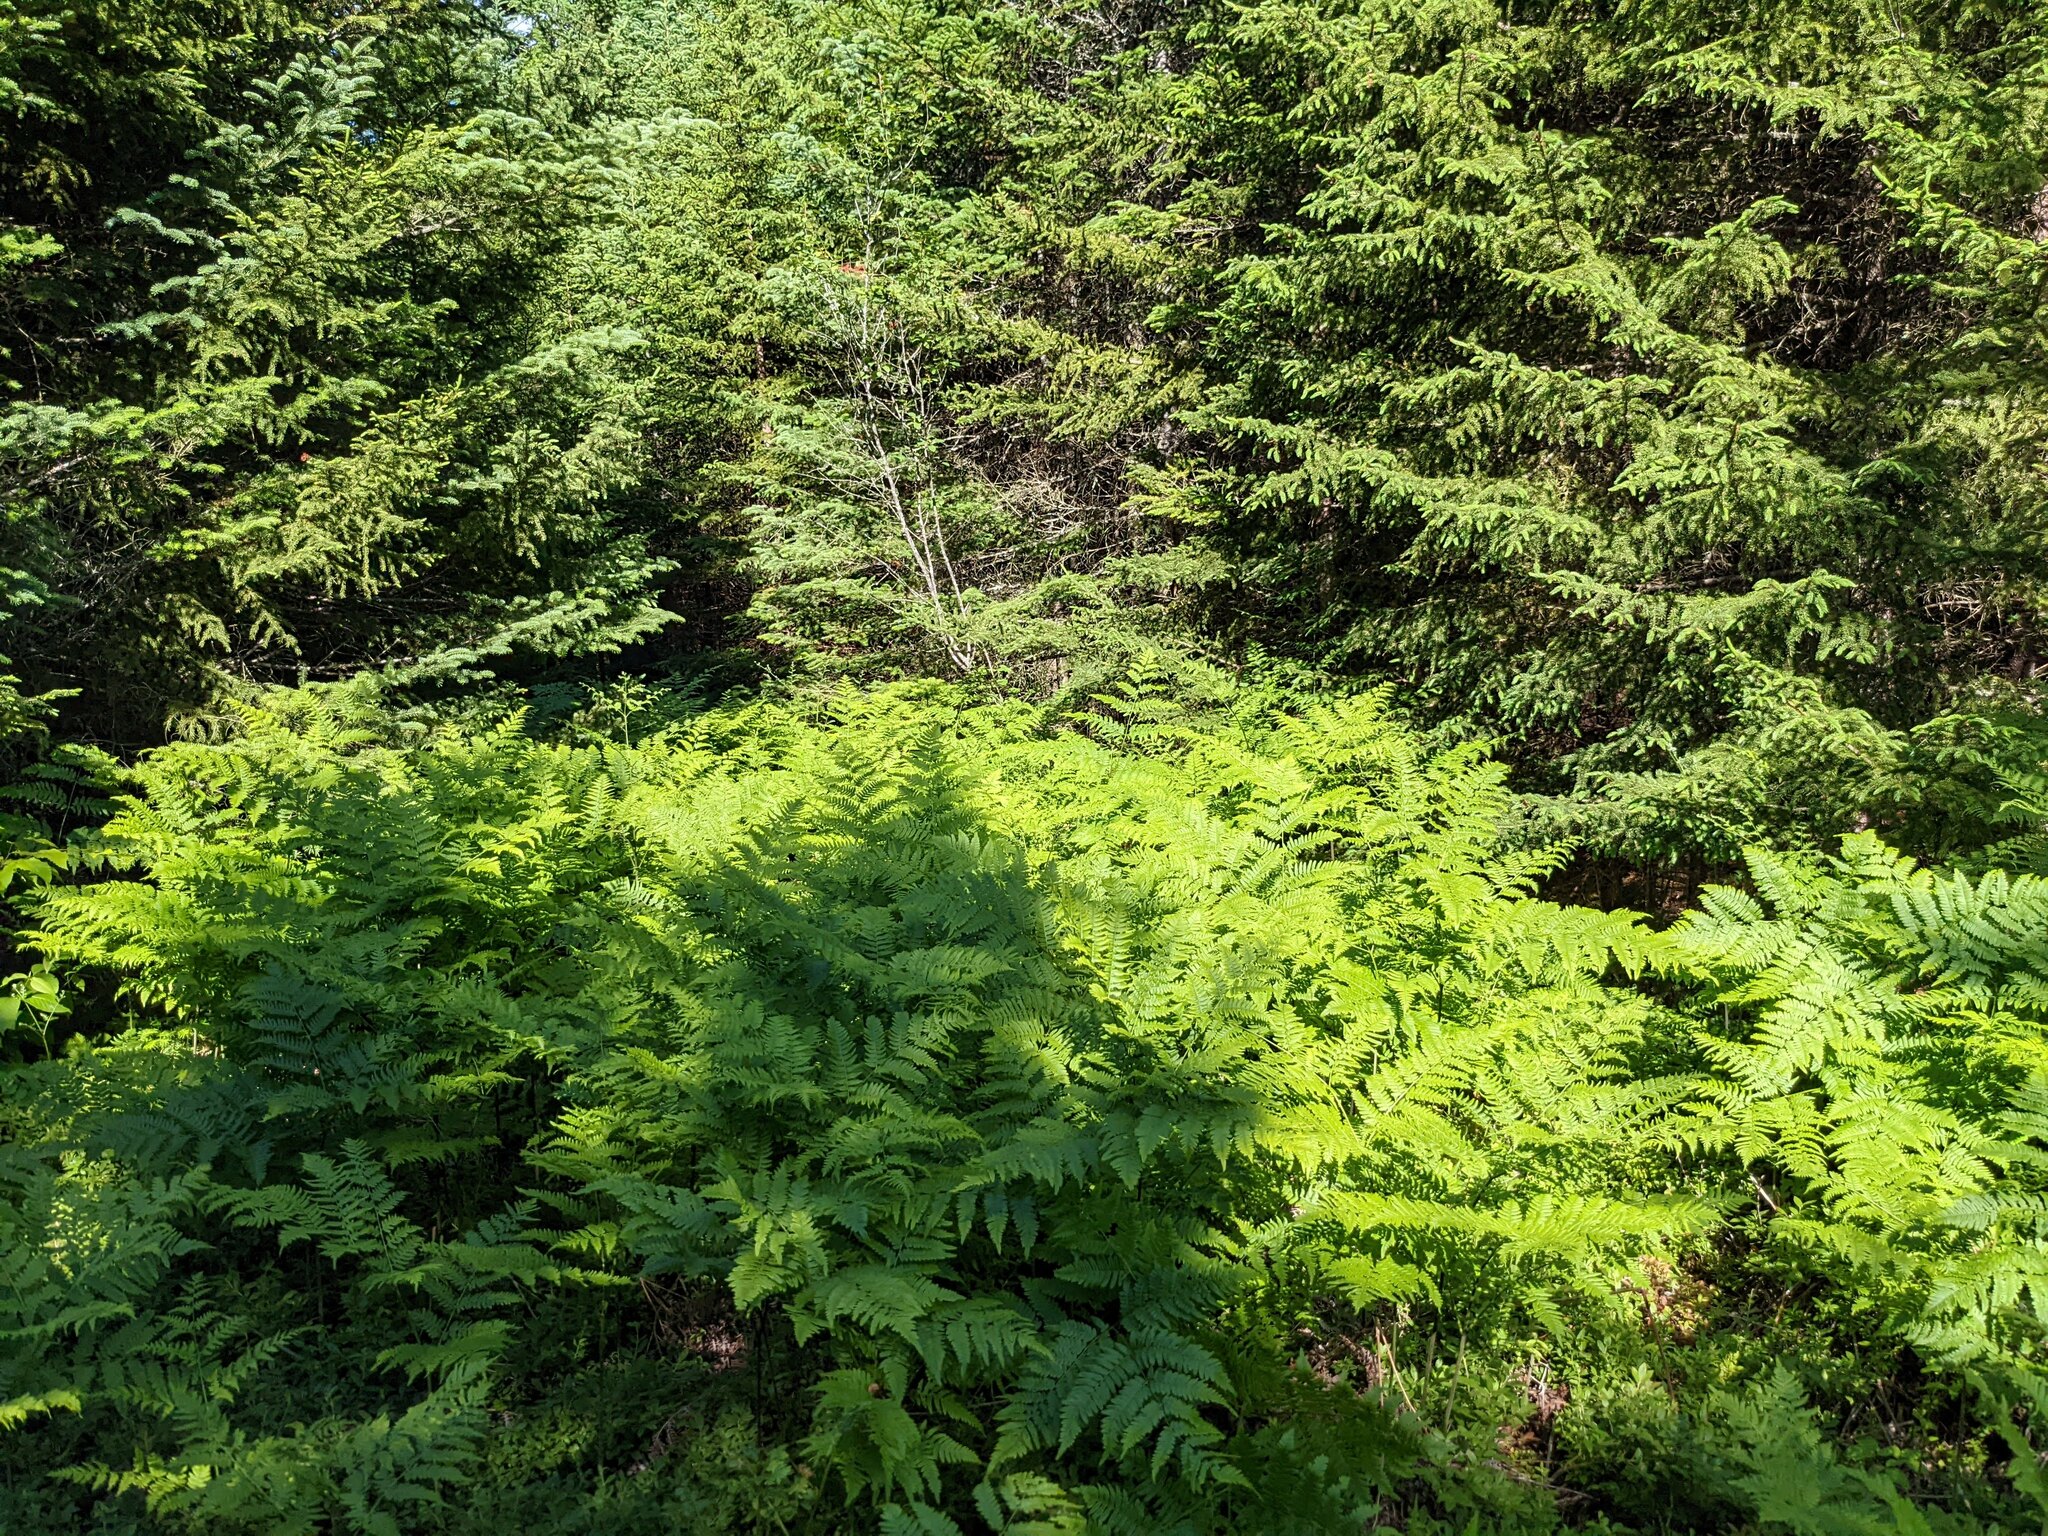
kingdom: Plantae
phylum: Tracheophyta
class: Polypodiopsida
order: Polypodiales
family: Dennstaedtiaceae
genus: Pteridium
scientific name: Pteridium aquilinum
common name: Bracken
